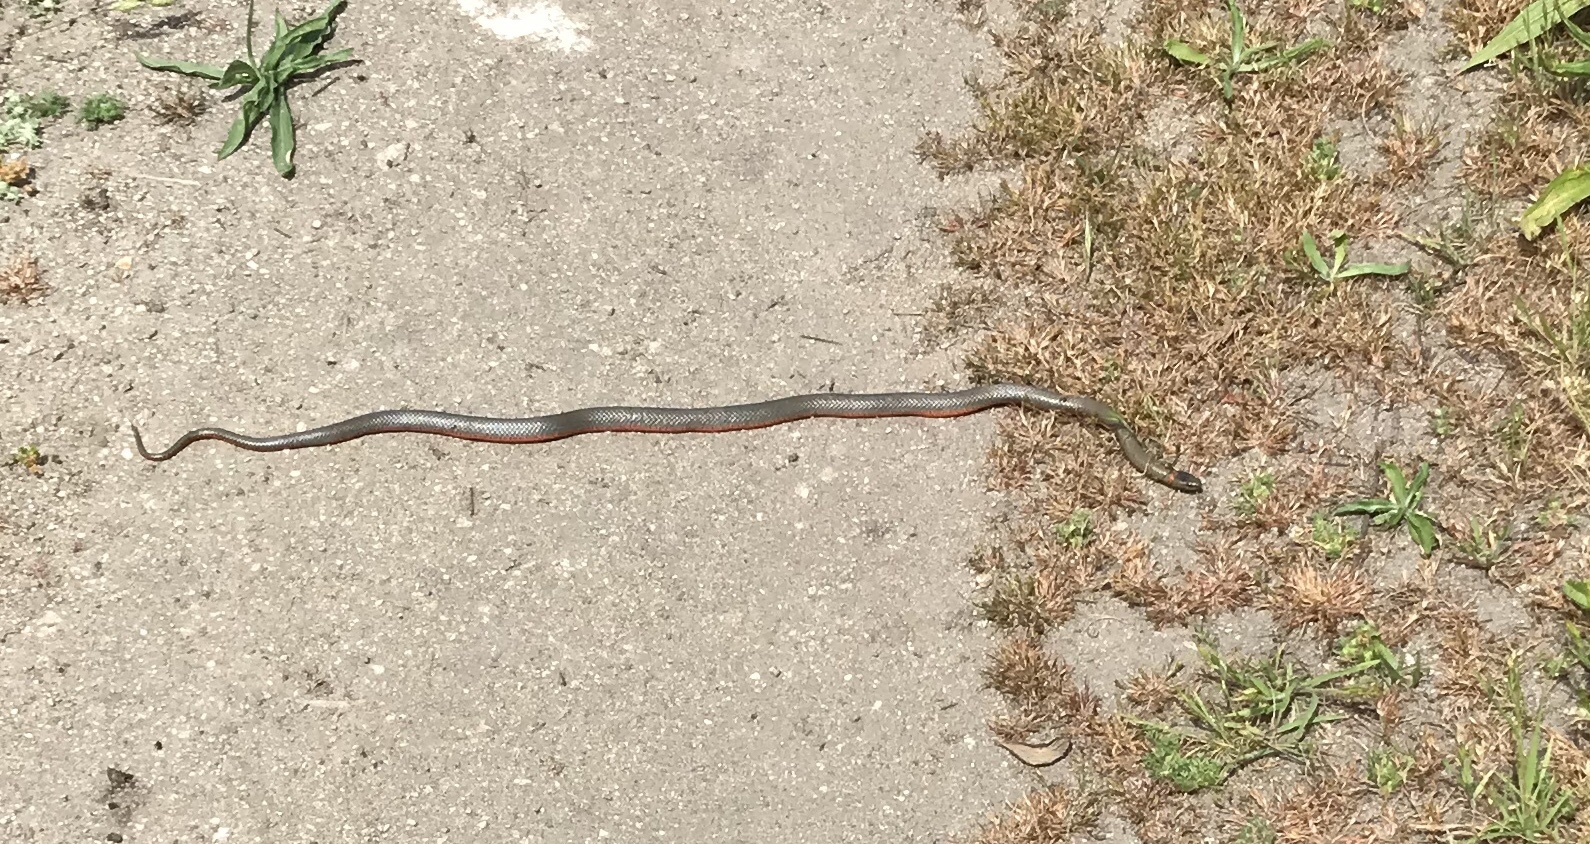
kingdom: Animalia
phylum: Chordata
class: Squamata
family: Colubridae
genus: Diadophis
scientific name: Diadophis punctatus
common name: Ringneck snake
